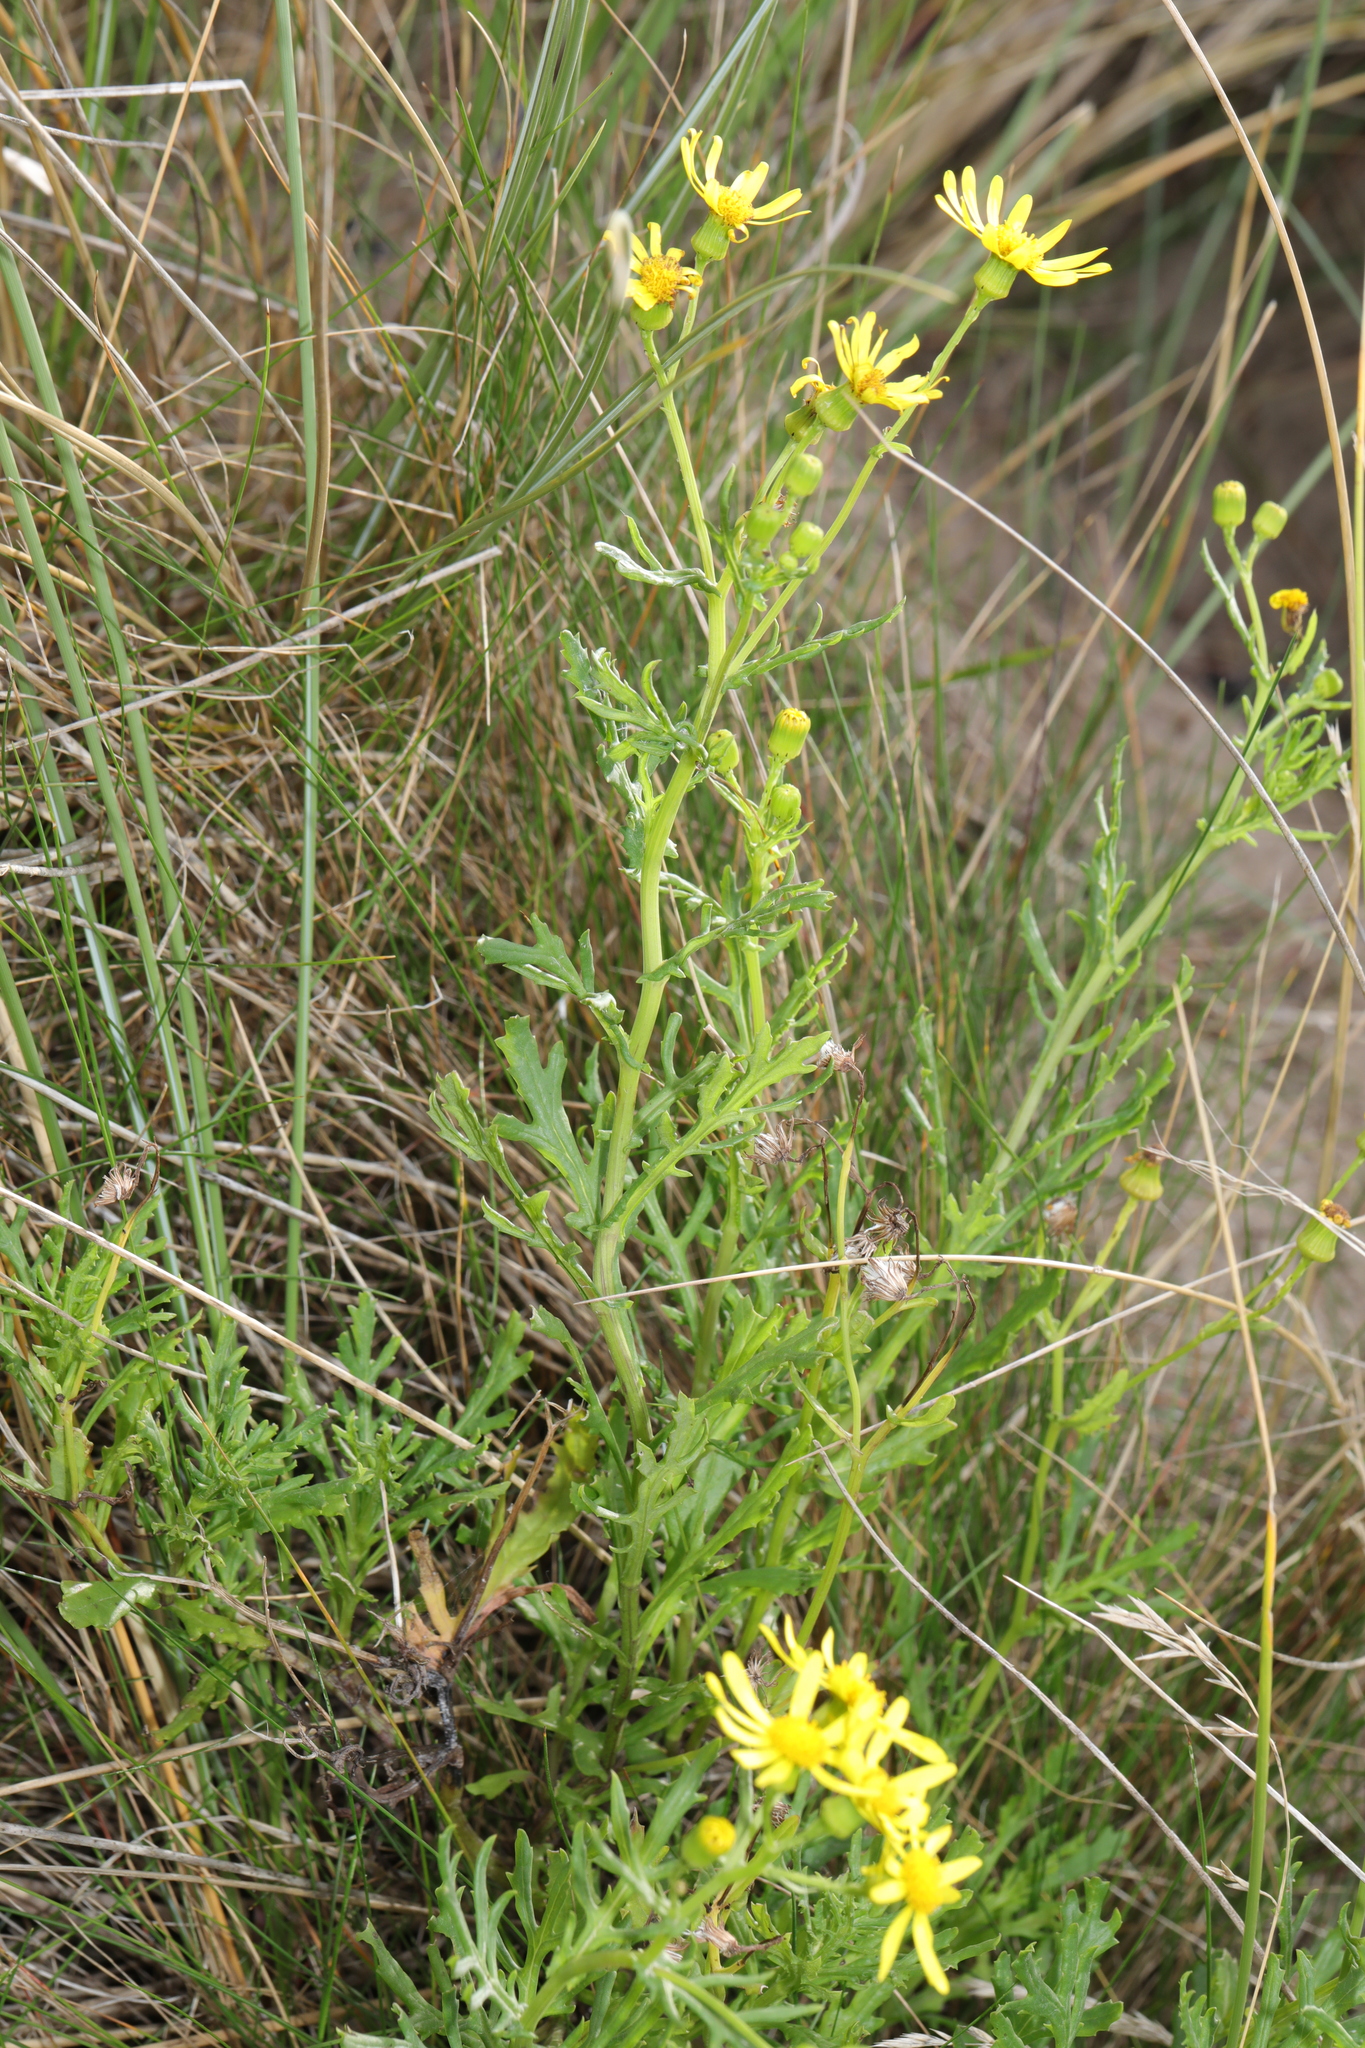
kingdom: Plantae
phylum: Tracheophyta
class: Magnoliopsida
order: Asterales
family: Asteraceae
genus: Senecio
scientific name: Senecio squalidus
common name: Oxford ragwort
